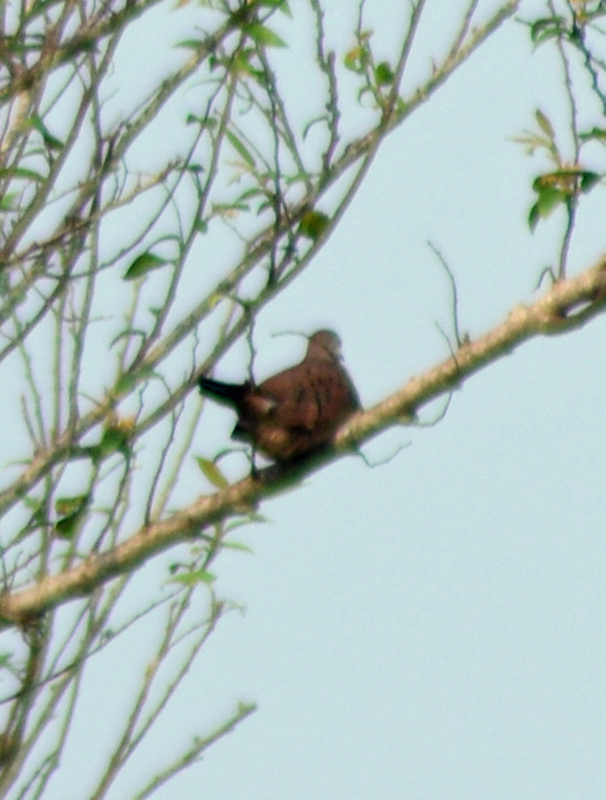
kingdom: Animalia
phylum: Chordata
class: Aves
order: Columbiformes
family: Columbidae
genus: Columbina
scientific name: Columbina talpacoti
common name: Ruddy ground dove
